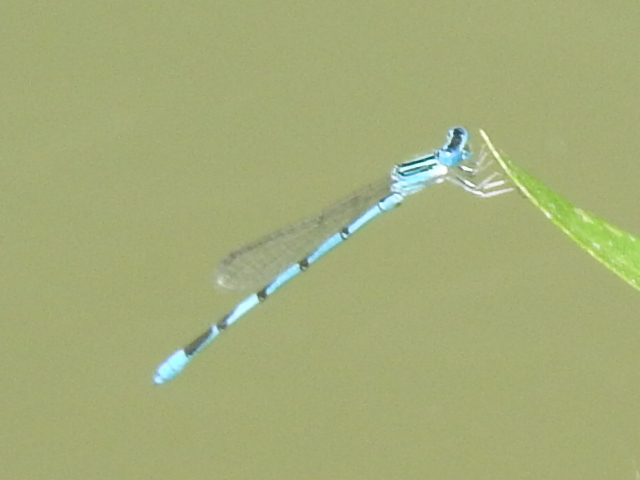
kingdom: Animalia
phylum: Arthropoda
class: Insecta
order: Odonata
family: Coenagrionidae
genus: Enallagma
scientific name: Enallagma basidens
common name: Double-striped bluet
